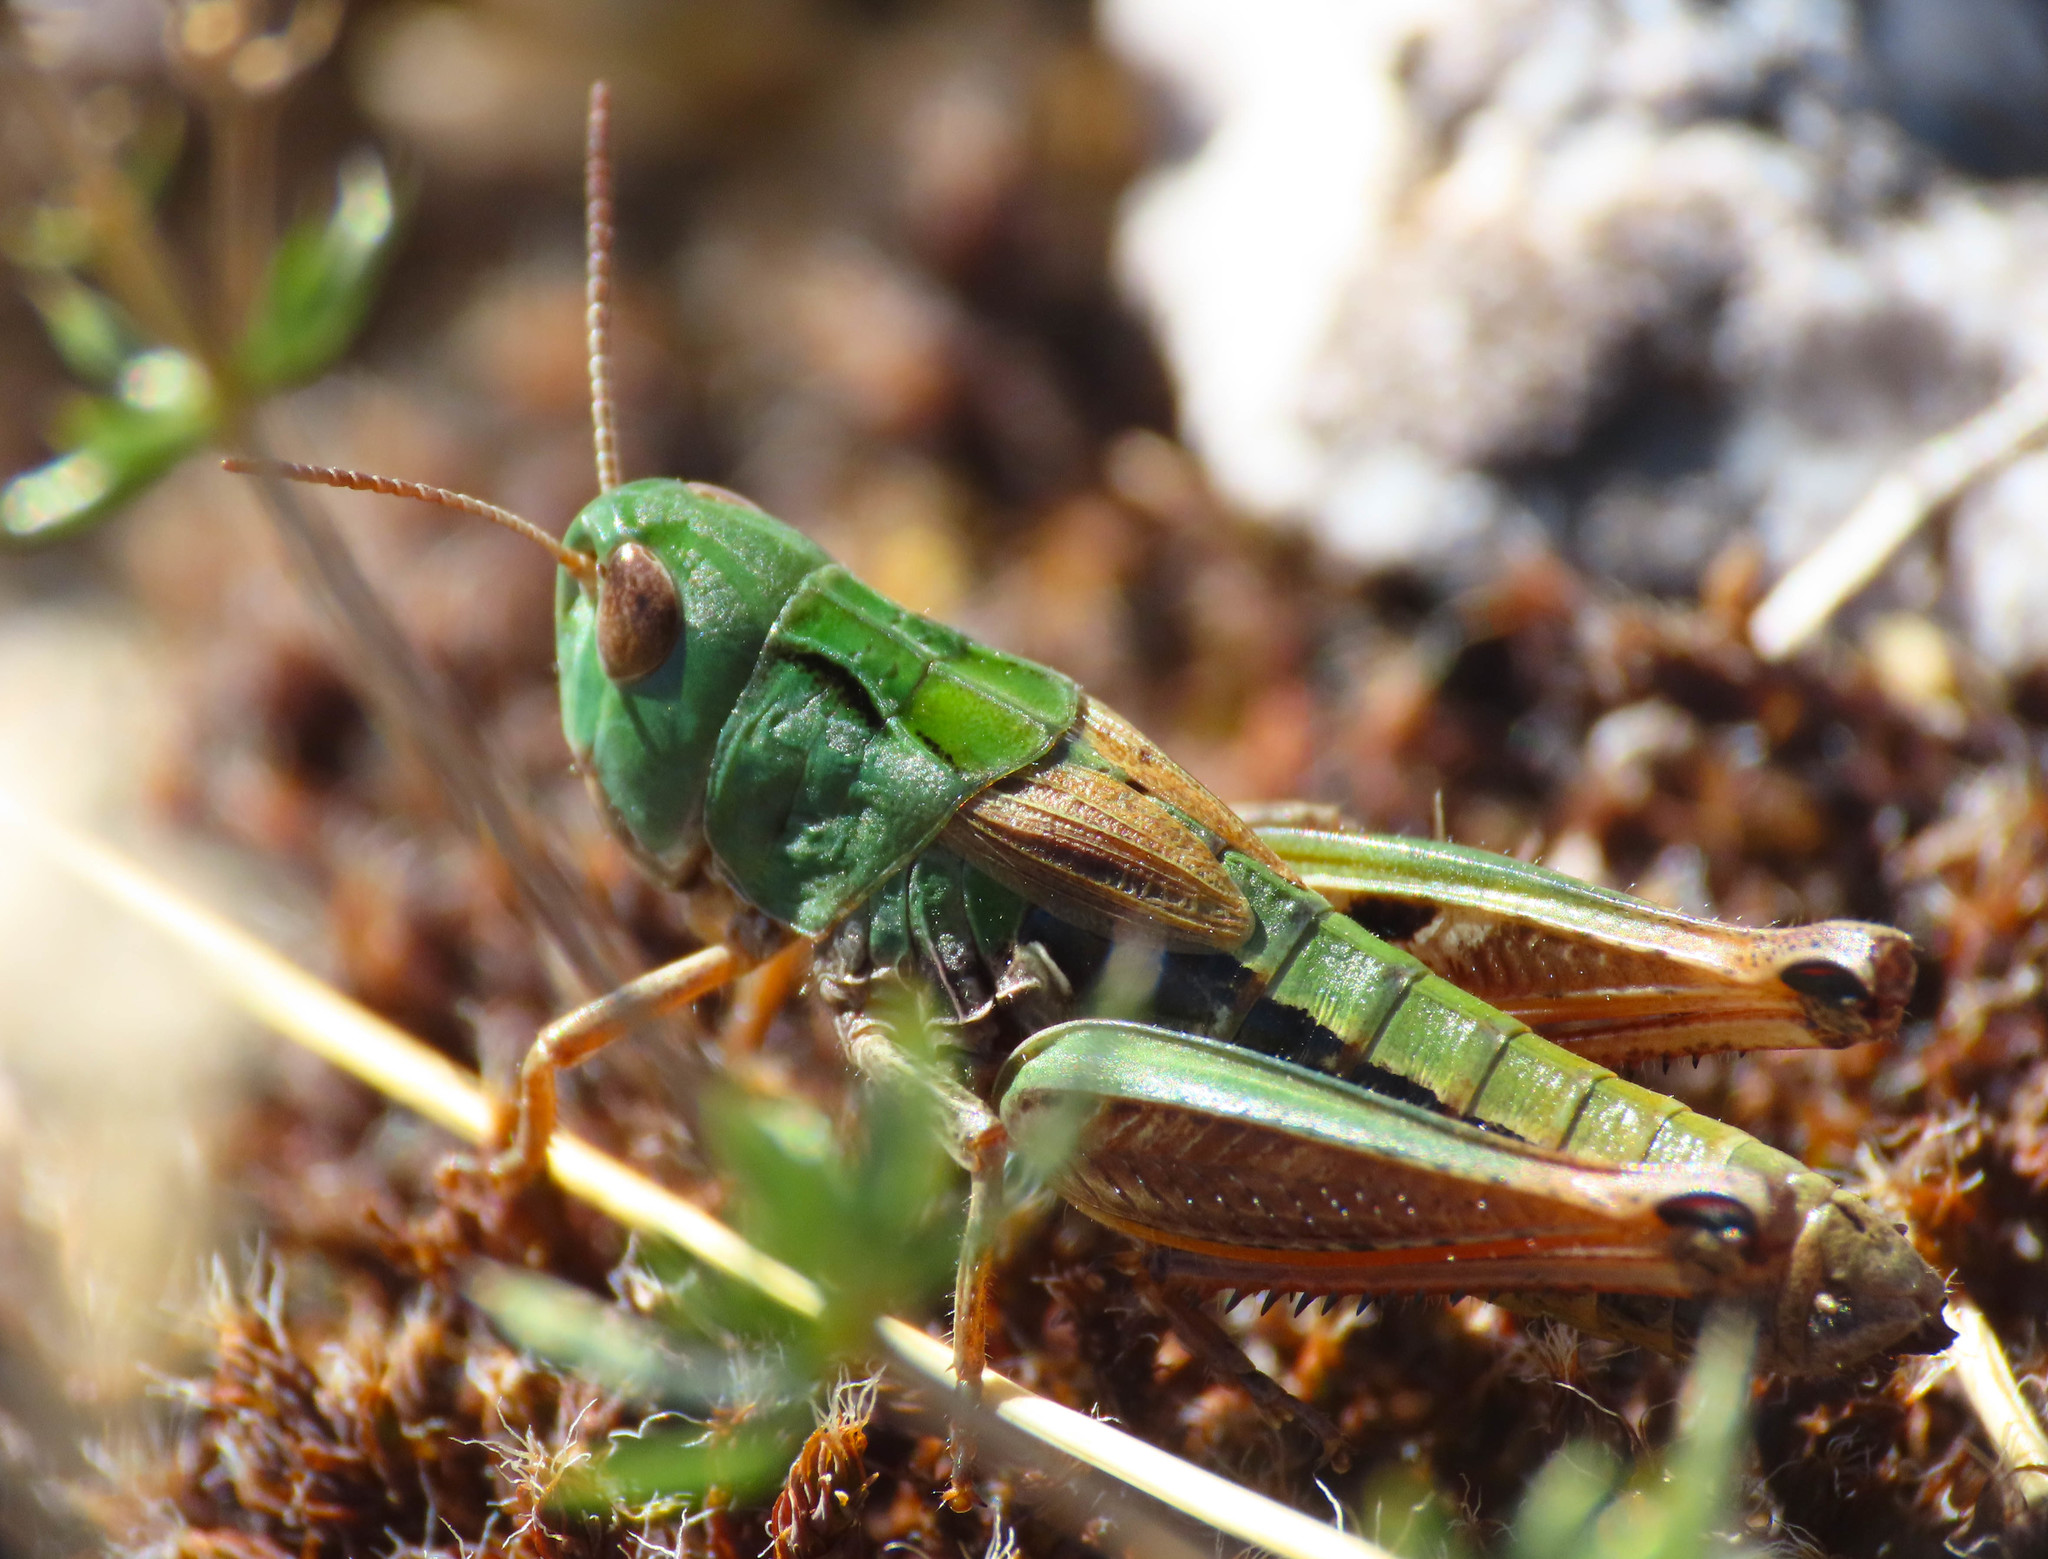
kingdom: Animalia
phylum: Arthropoda
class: Insecta
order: Orthoptera
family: Acrididae
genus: Stenobothrus
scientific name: Stenobothrus apenninus
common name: Apennine grasshopper
